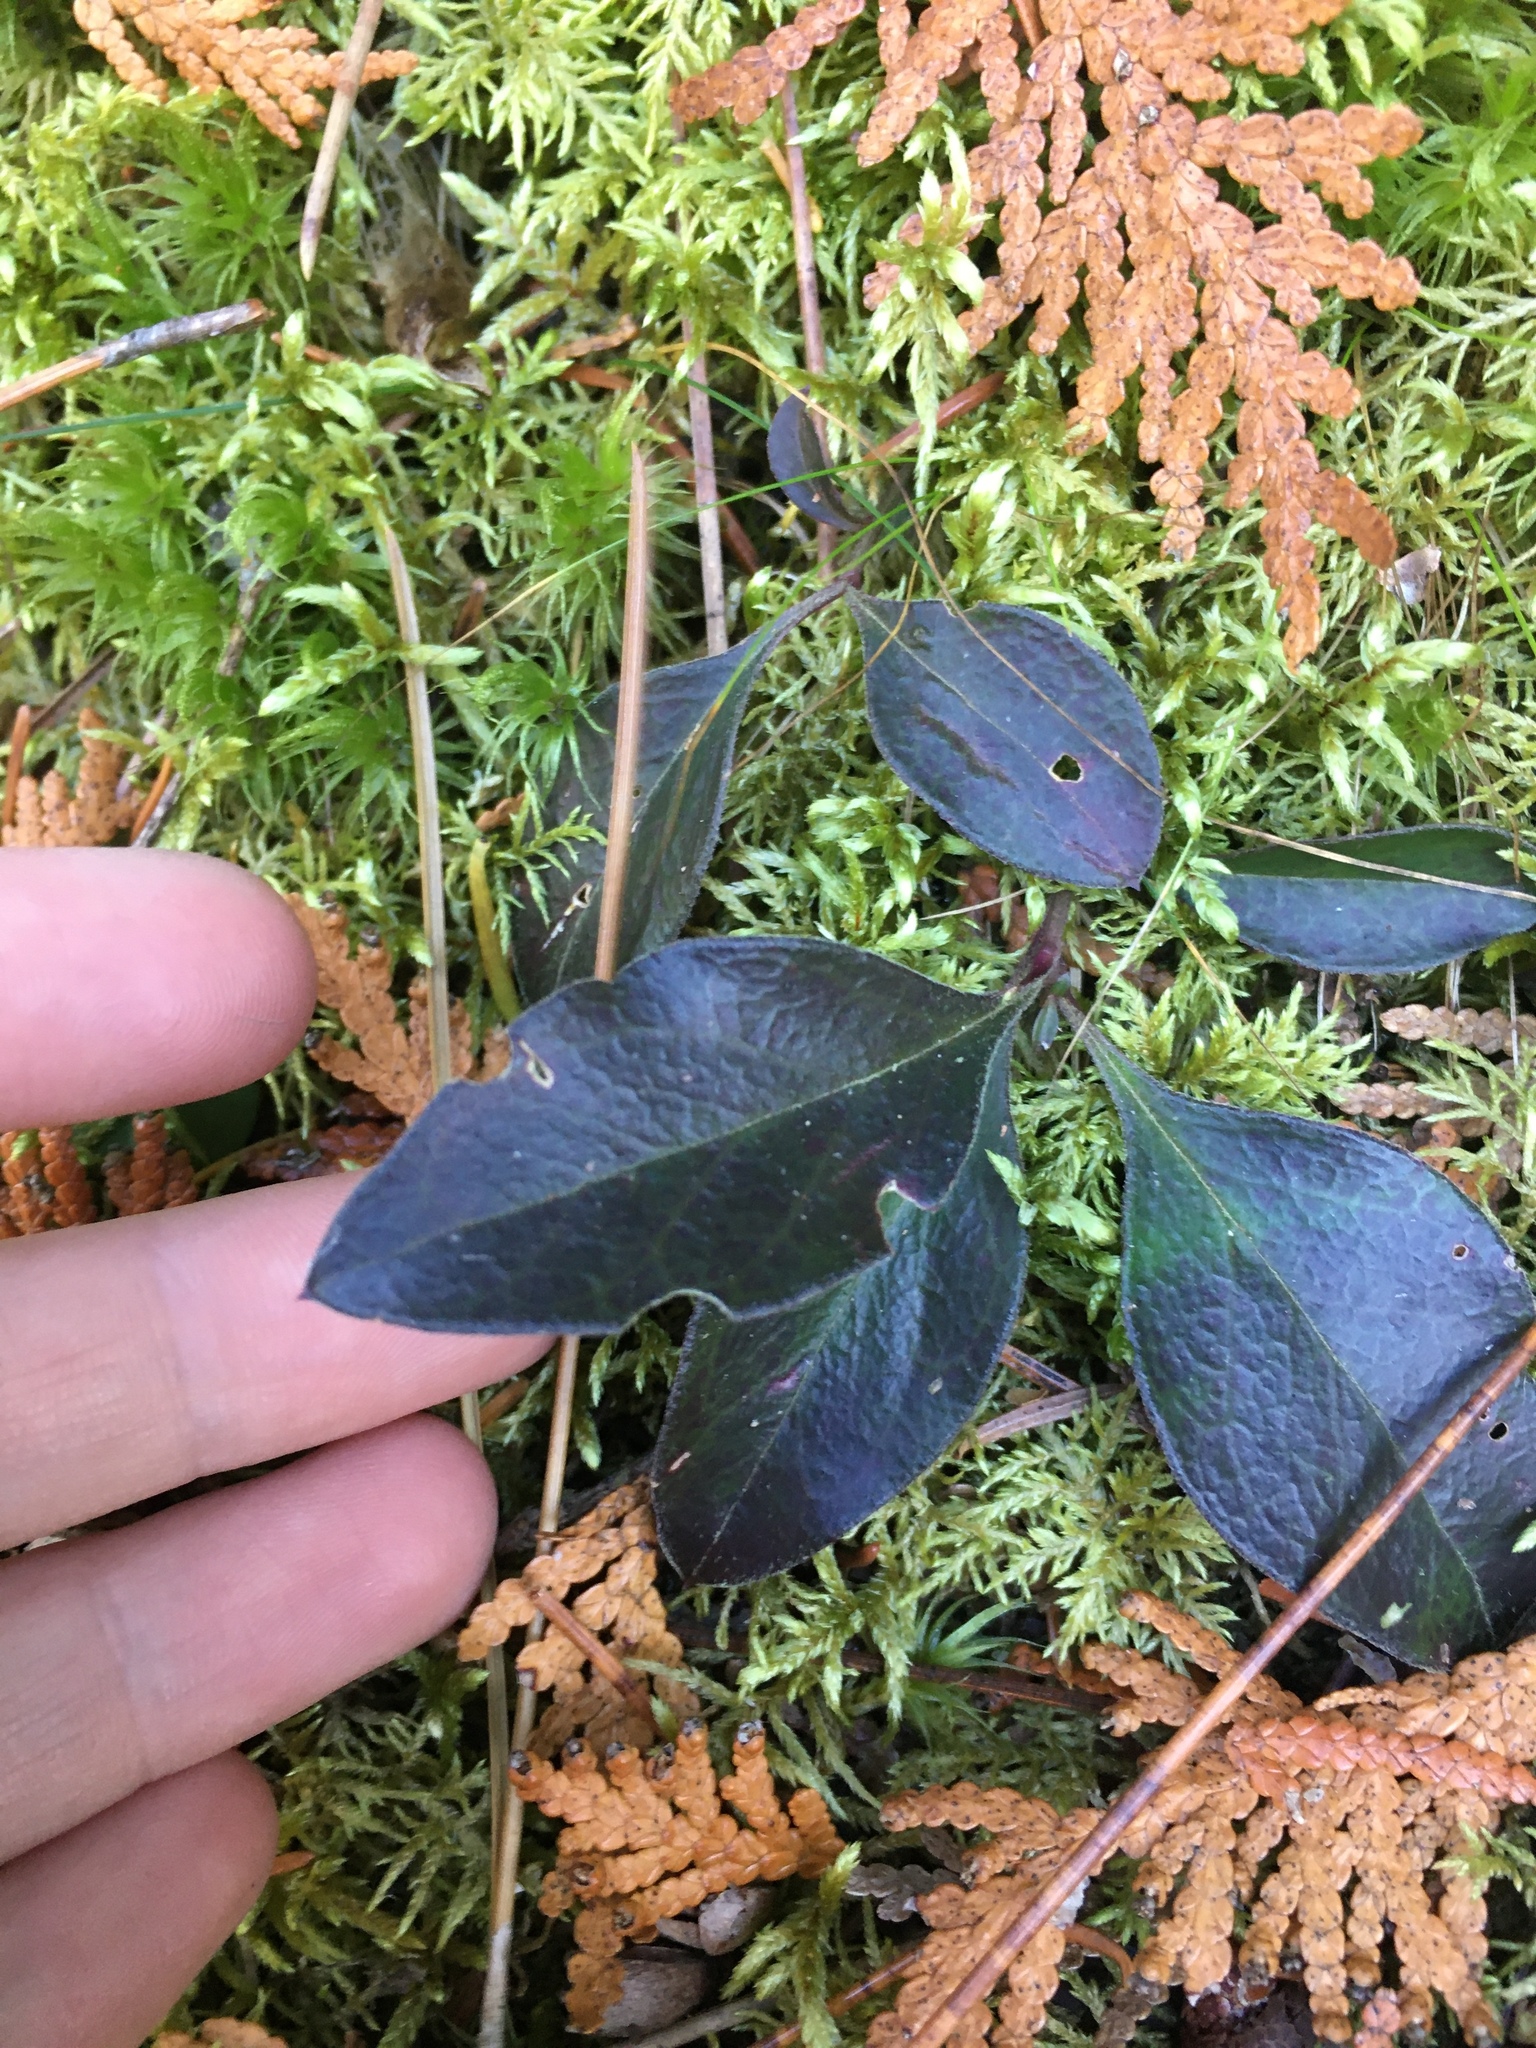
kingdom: Plantae
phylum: Tracheophyta
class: Magnoliopsida
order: Fabales
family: Polygalaceae
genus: Polygaloides
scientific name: Polygaloides paucifolia
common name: Bird-on-the-wing
